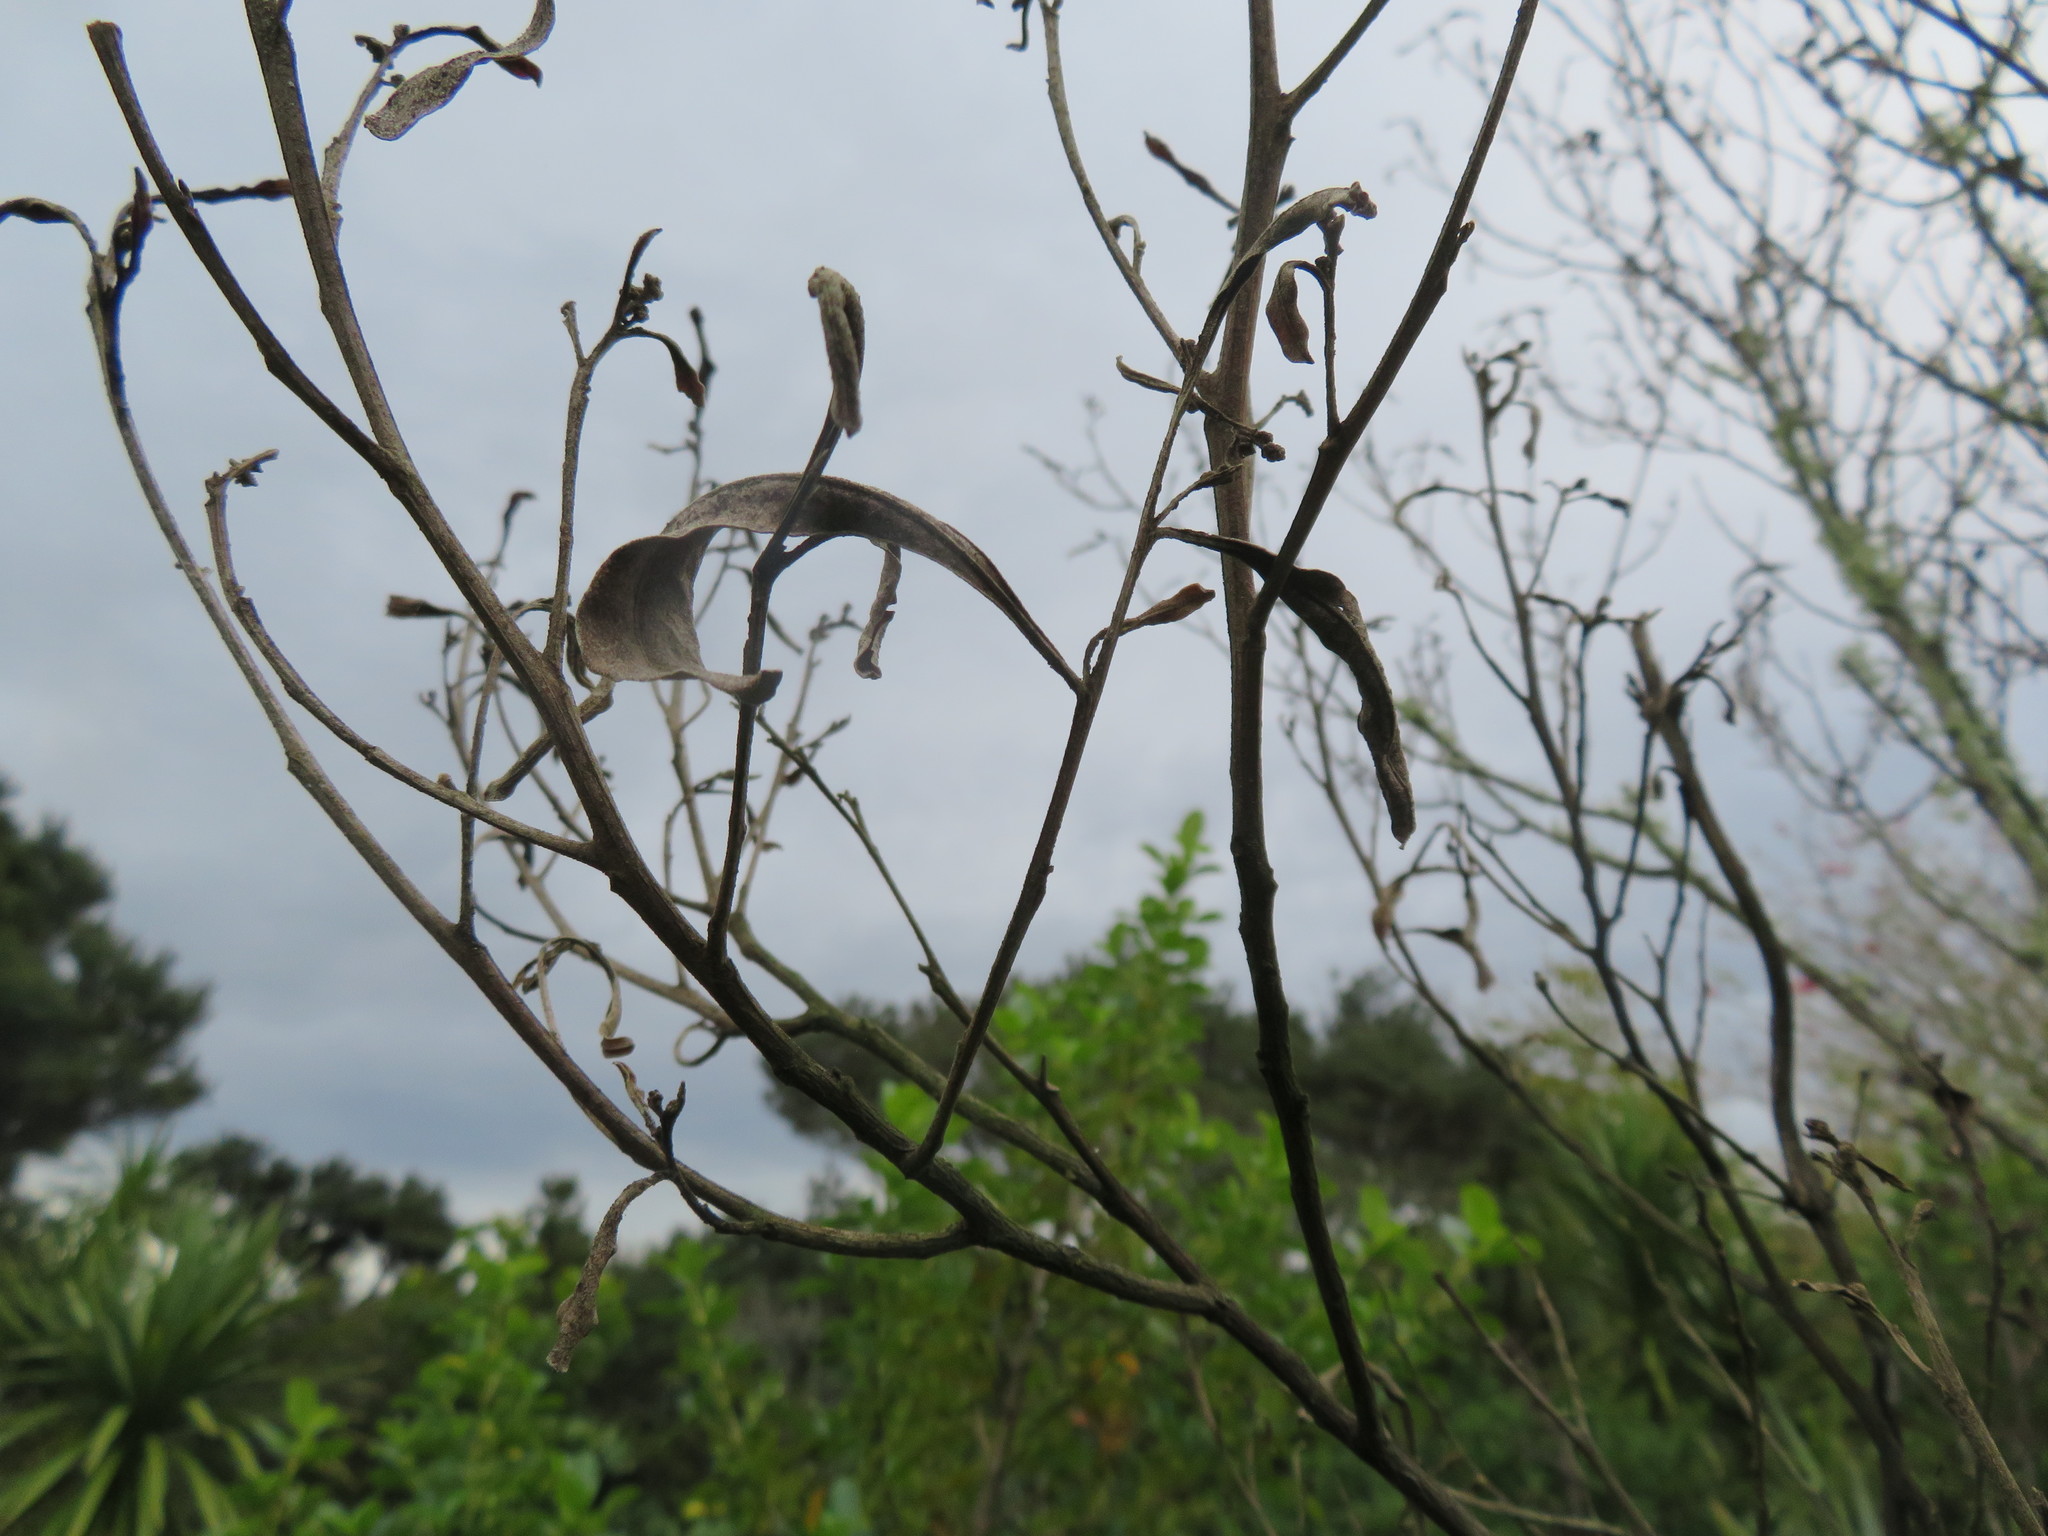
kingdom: Plantae
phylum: Tracheophyta
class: Magnoliopsida
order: Sapindales
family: Sapindaceae
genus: Dodonaea
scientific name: Dodonaea viscosa
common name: Hopbush
